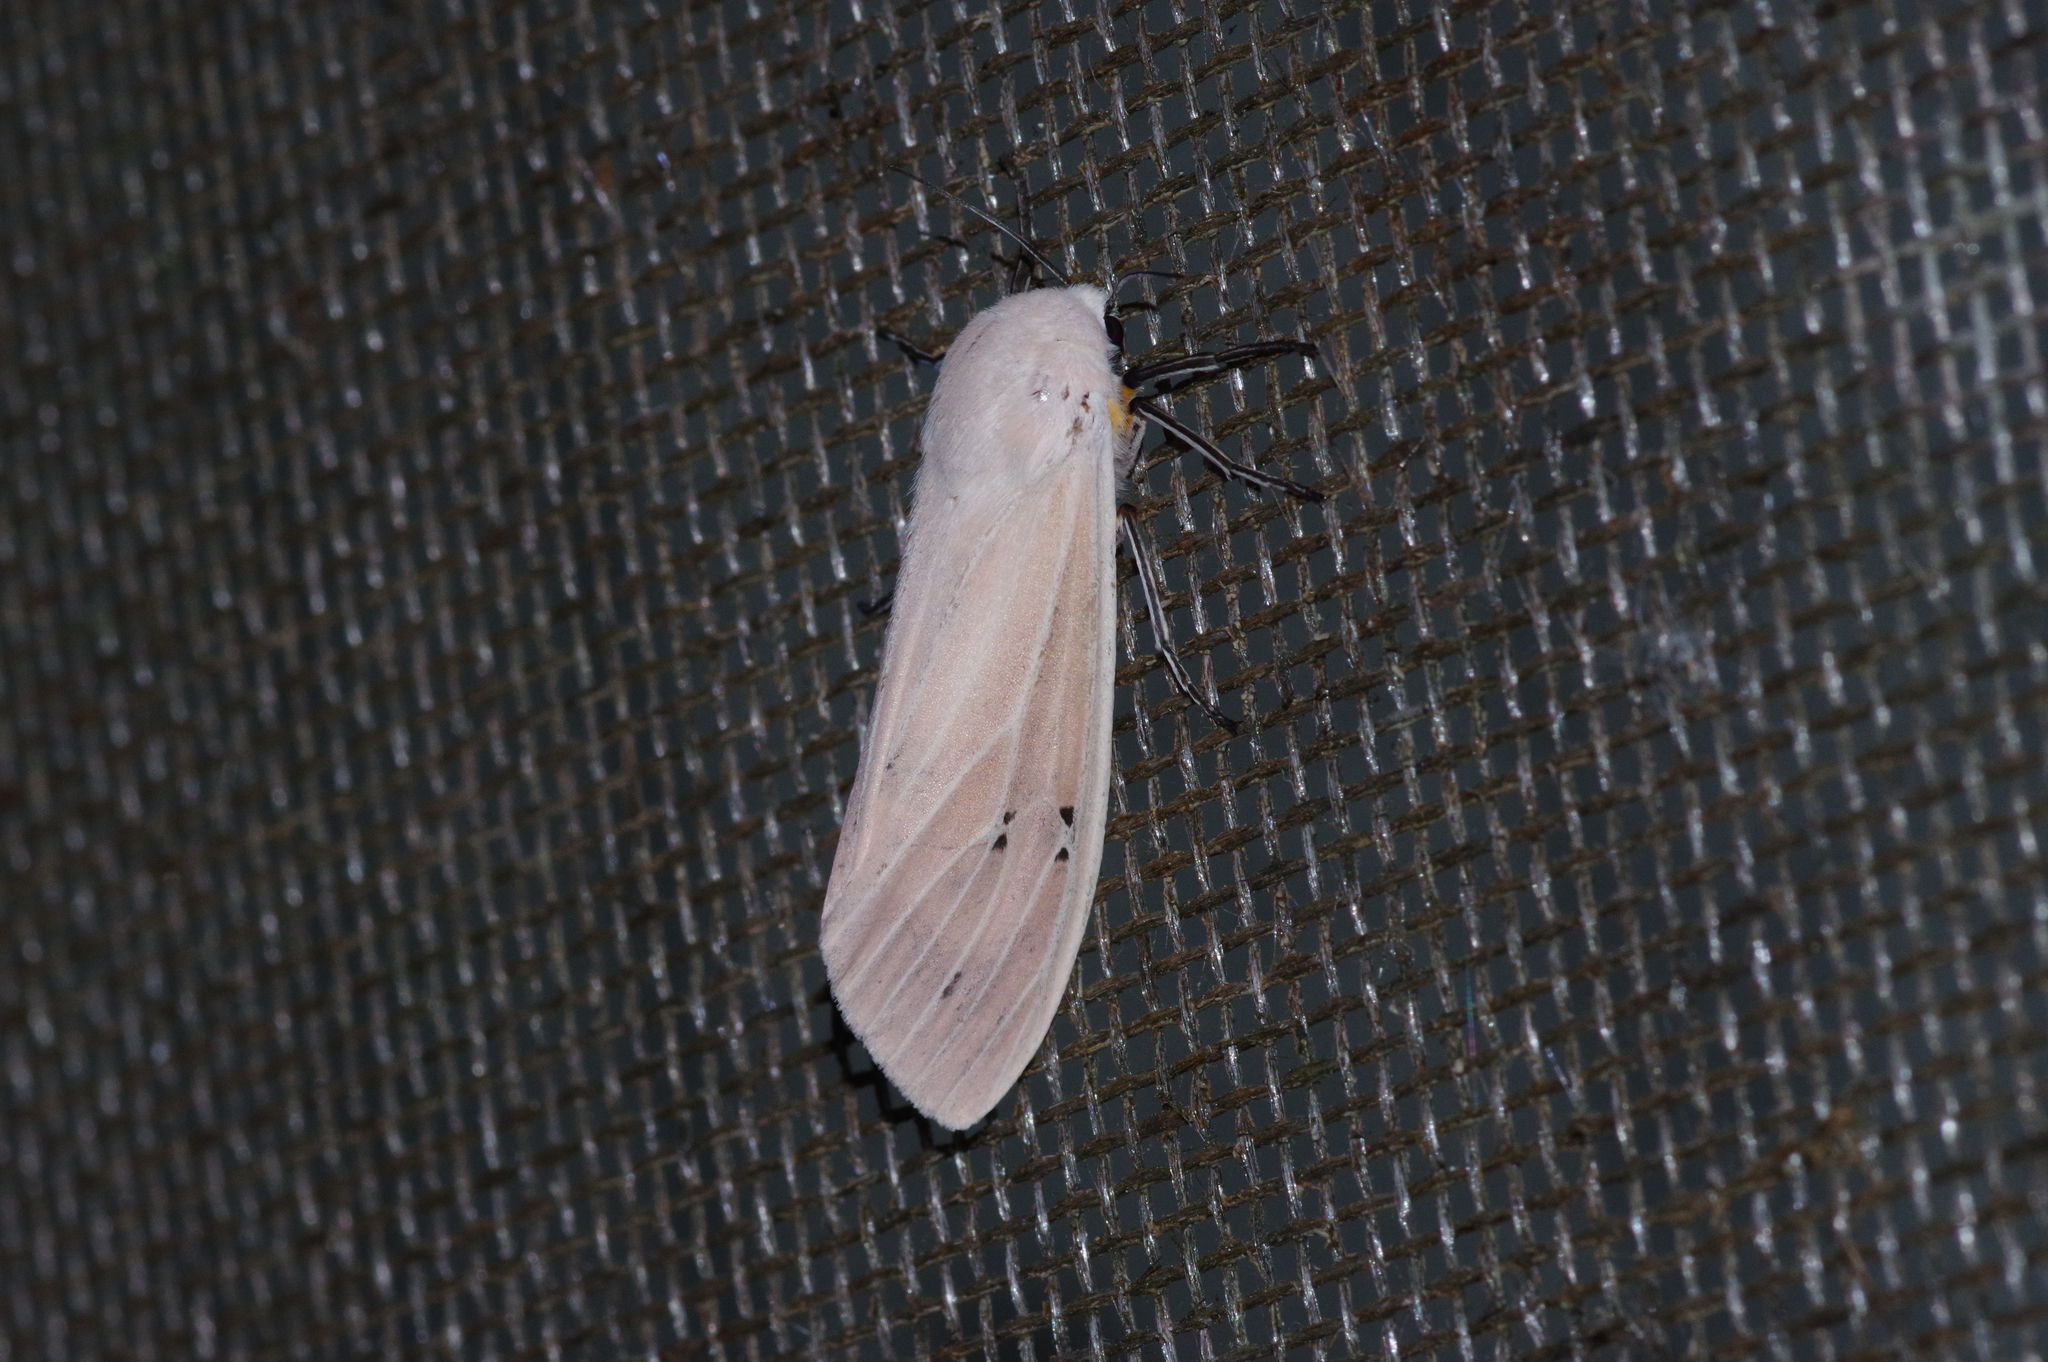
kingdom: Animalia
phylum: Arthropoda
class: Insecta
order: Lepidoptera
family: Erebidae
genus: Creatonotos
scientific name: Creatonotos transiens
